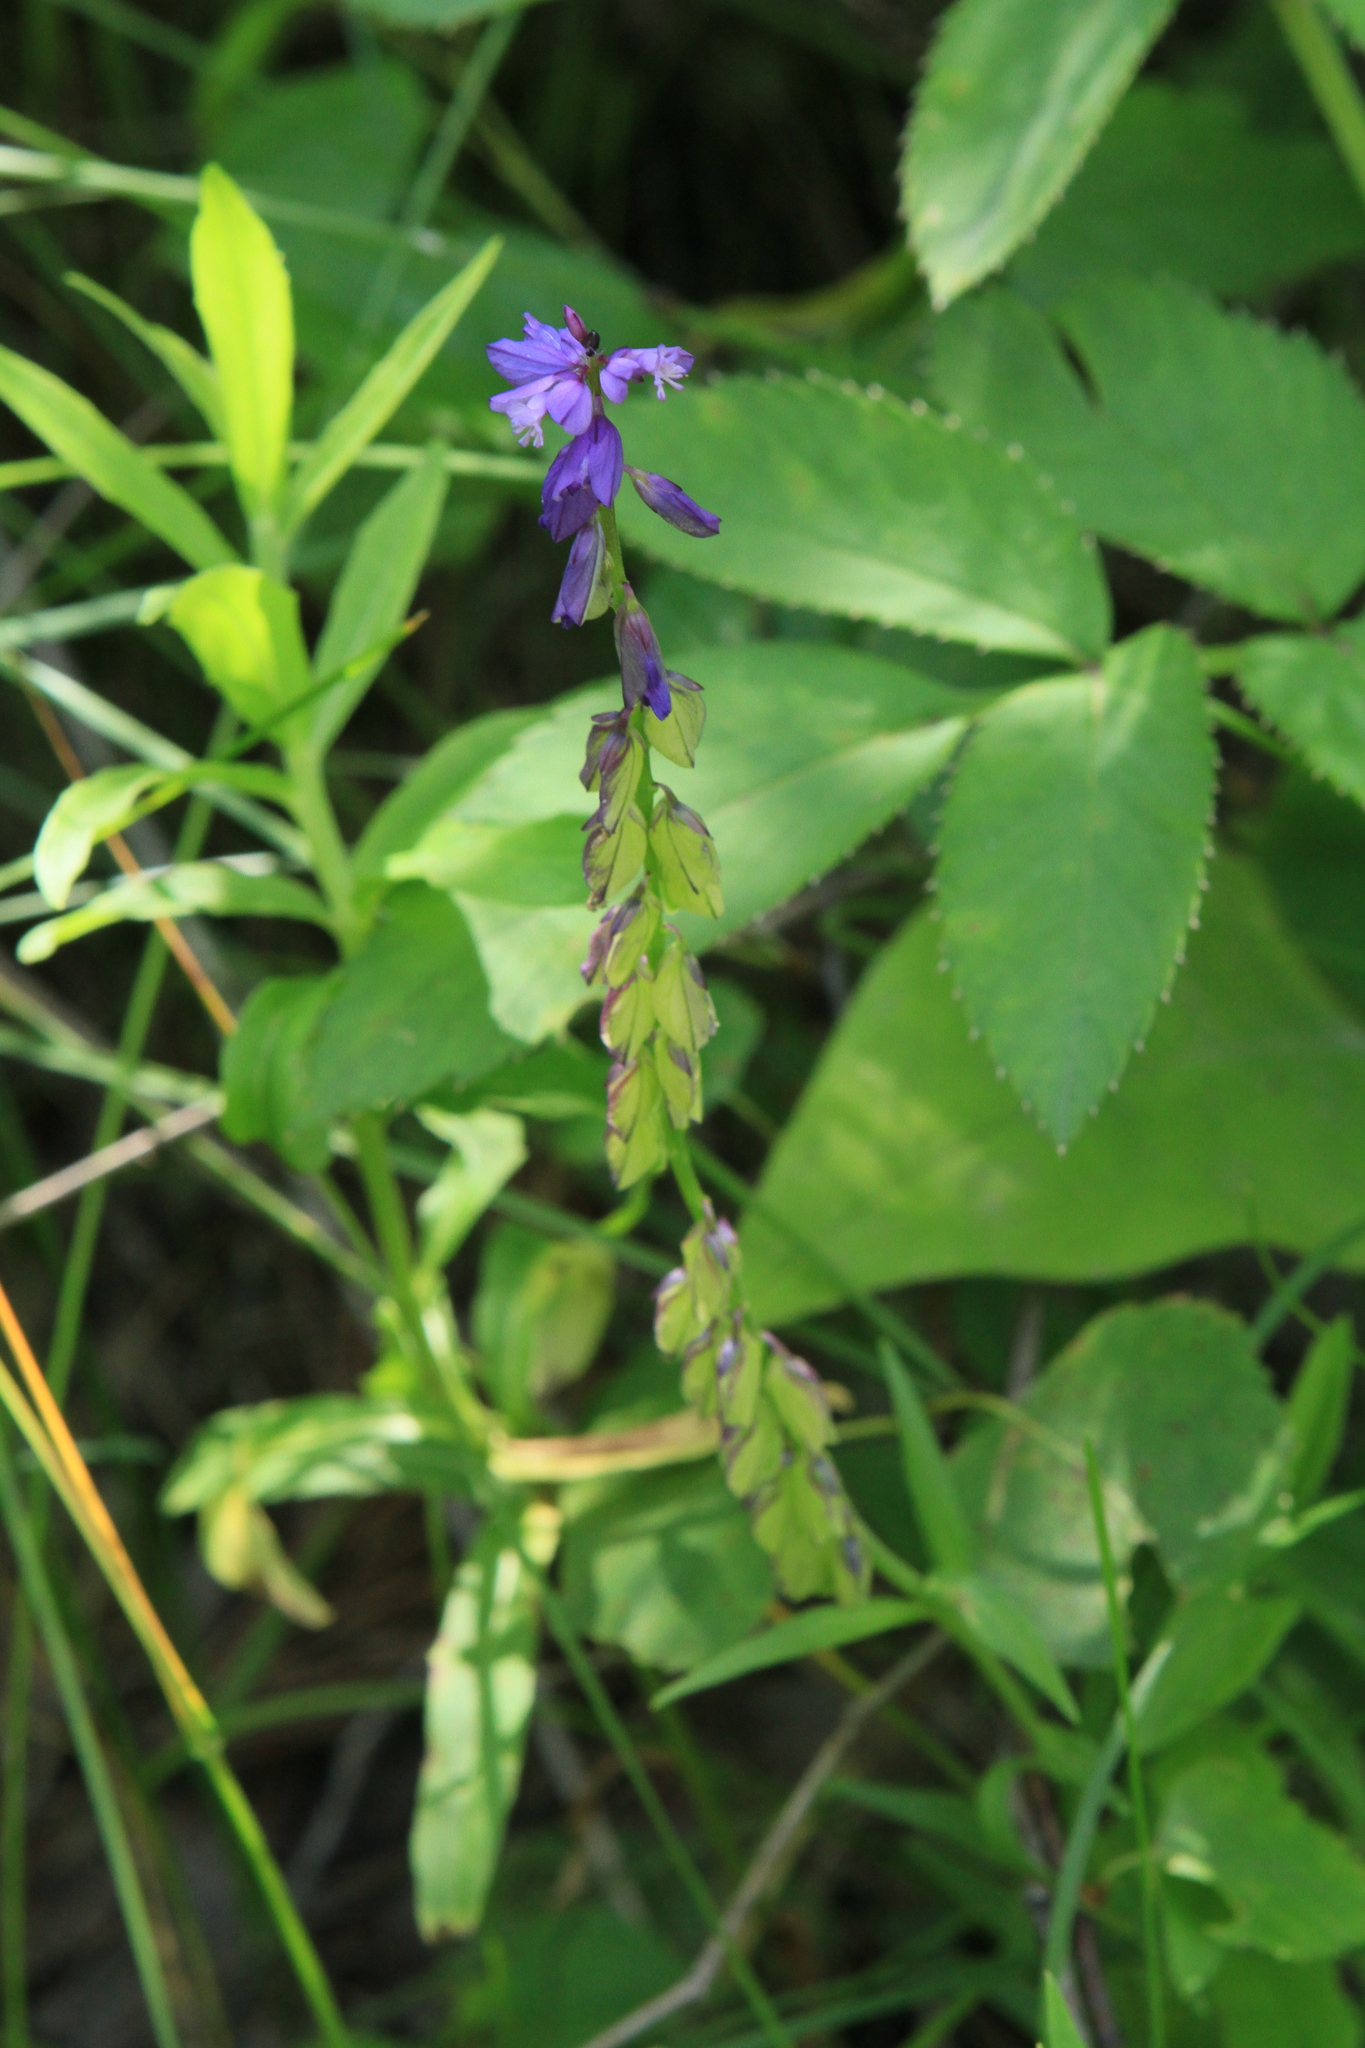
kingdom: Plantae
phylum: Tracheophyta
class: Magnoliopsida
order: Fabales
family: Polygalaceae
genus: Polygala
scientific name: Polygala comosa
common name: Tufted milkwort
